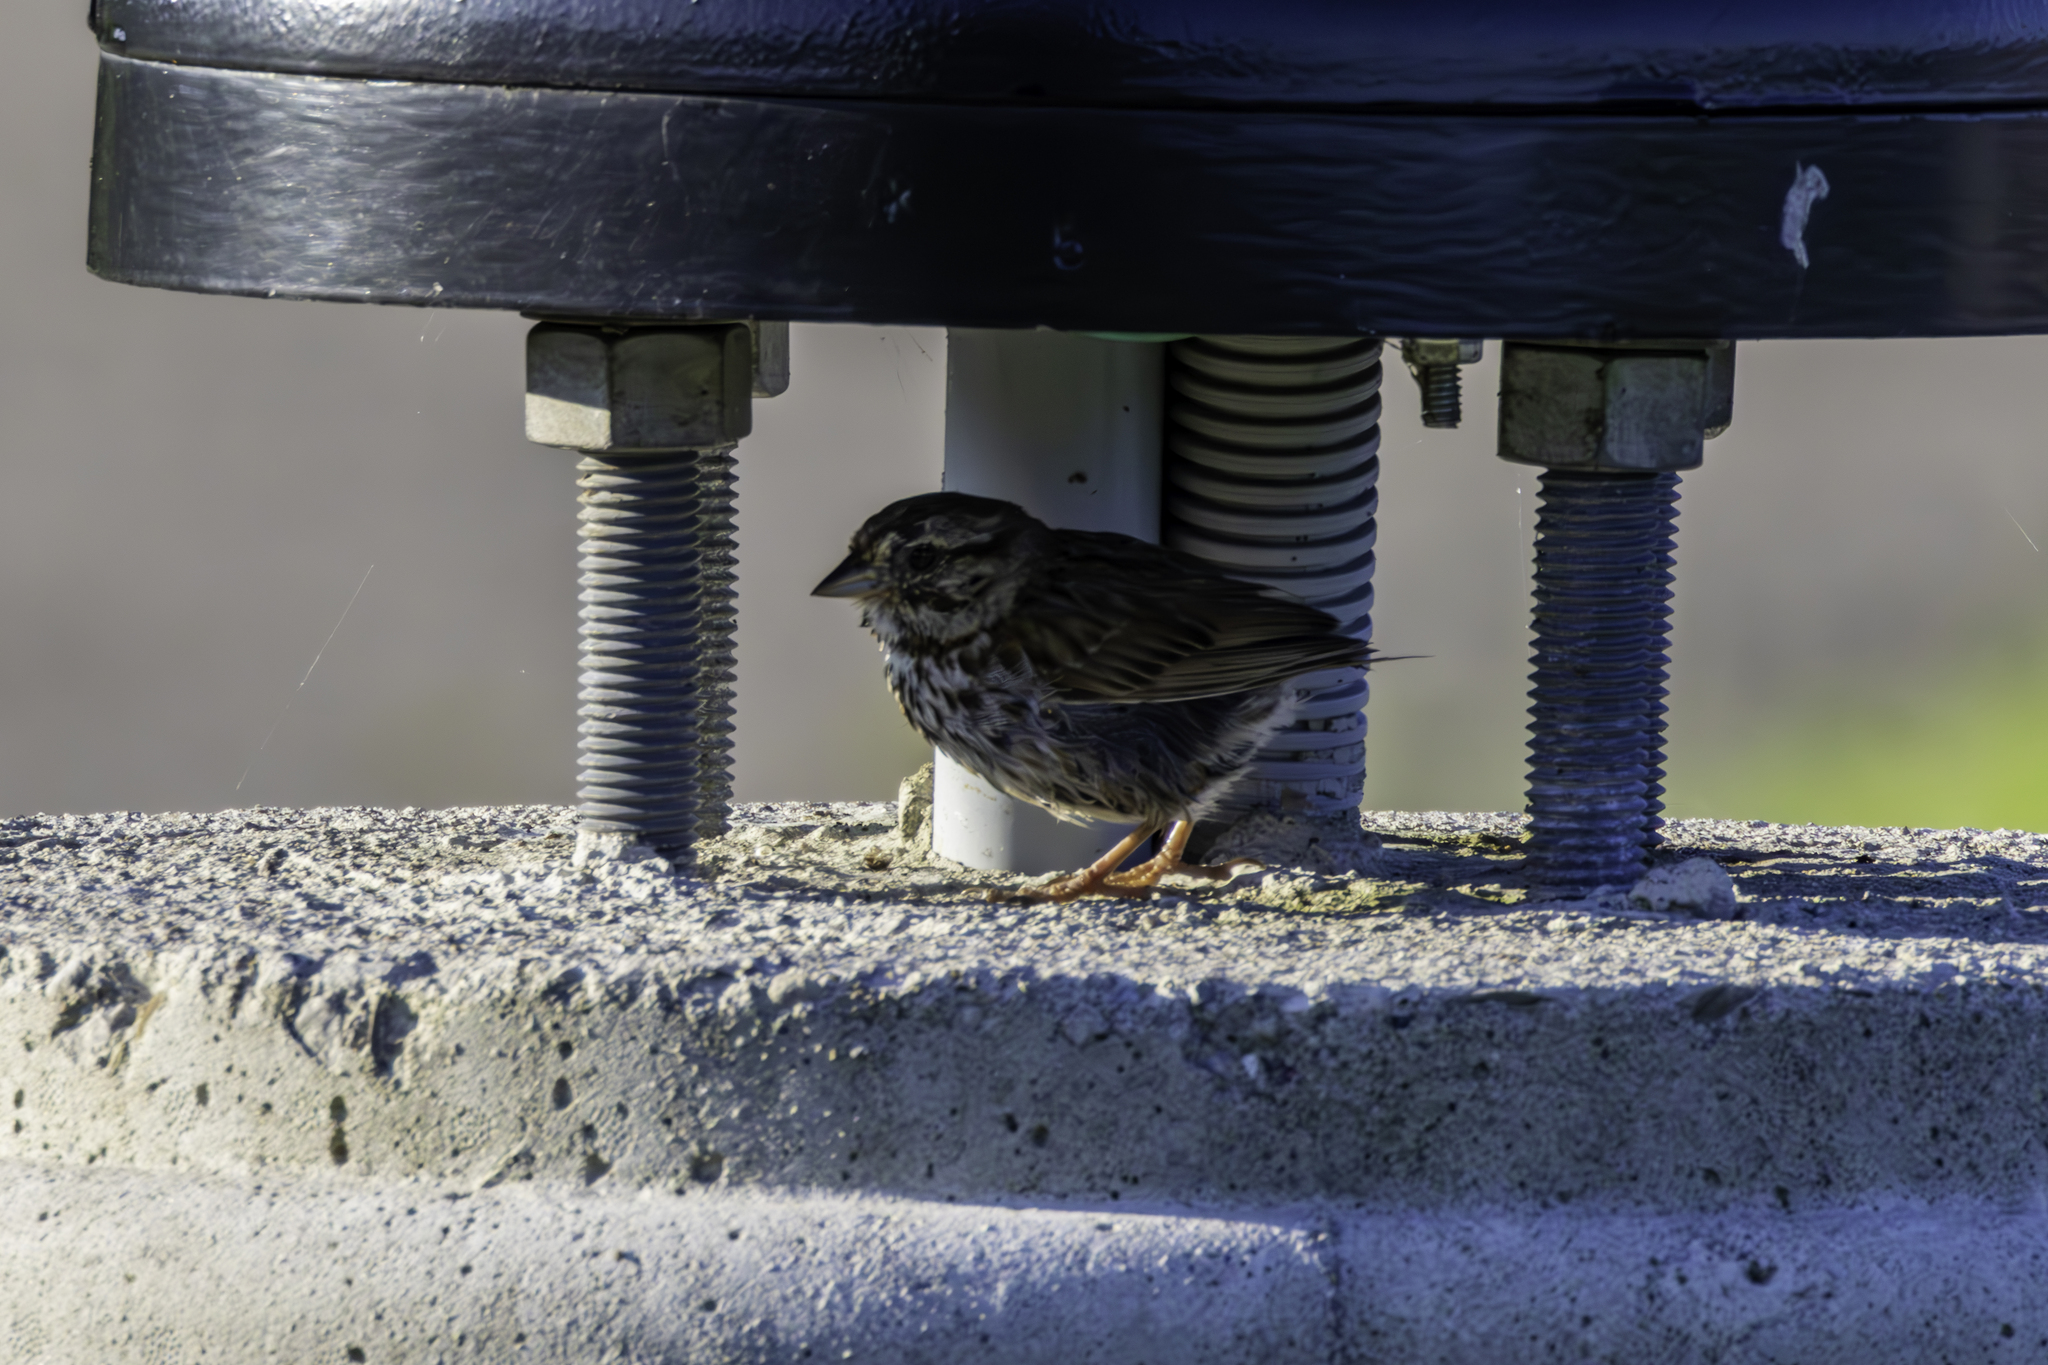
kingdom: Animalia
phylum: Chordata
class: Aves
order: Passeriformes
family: Passerellidae
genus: Melospiza
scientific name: Melospiza melodia
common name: Song sparrow
